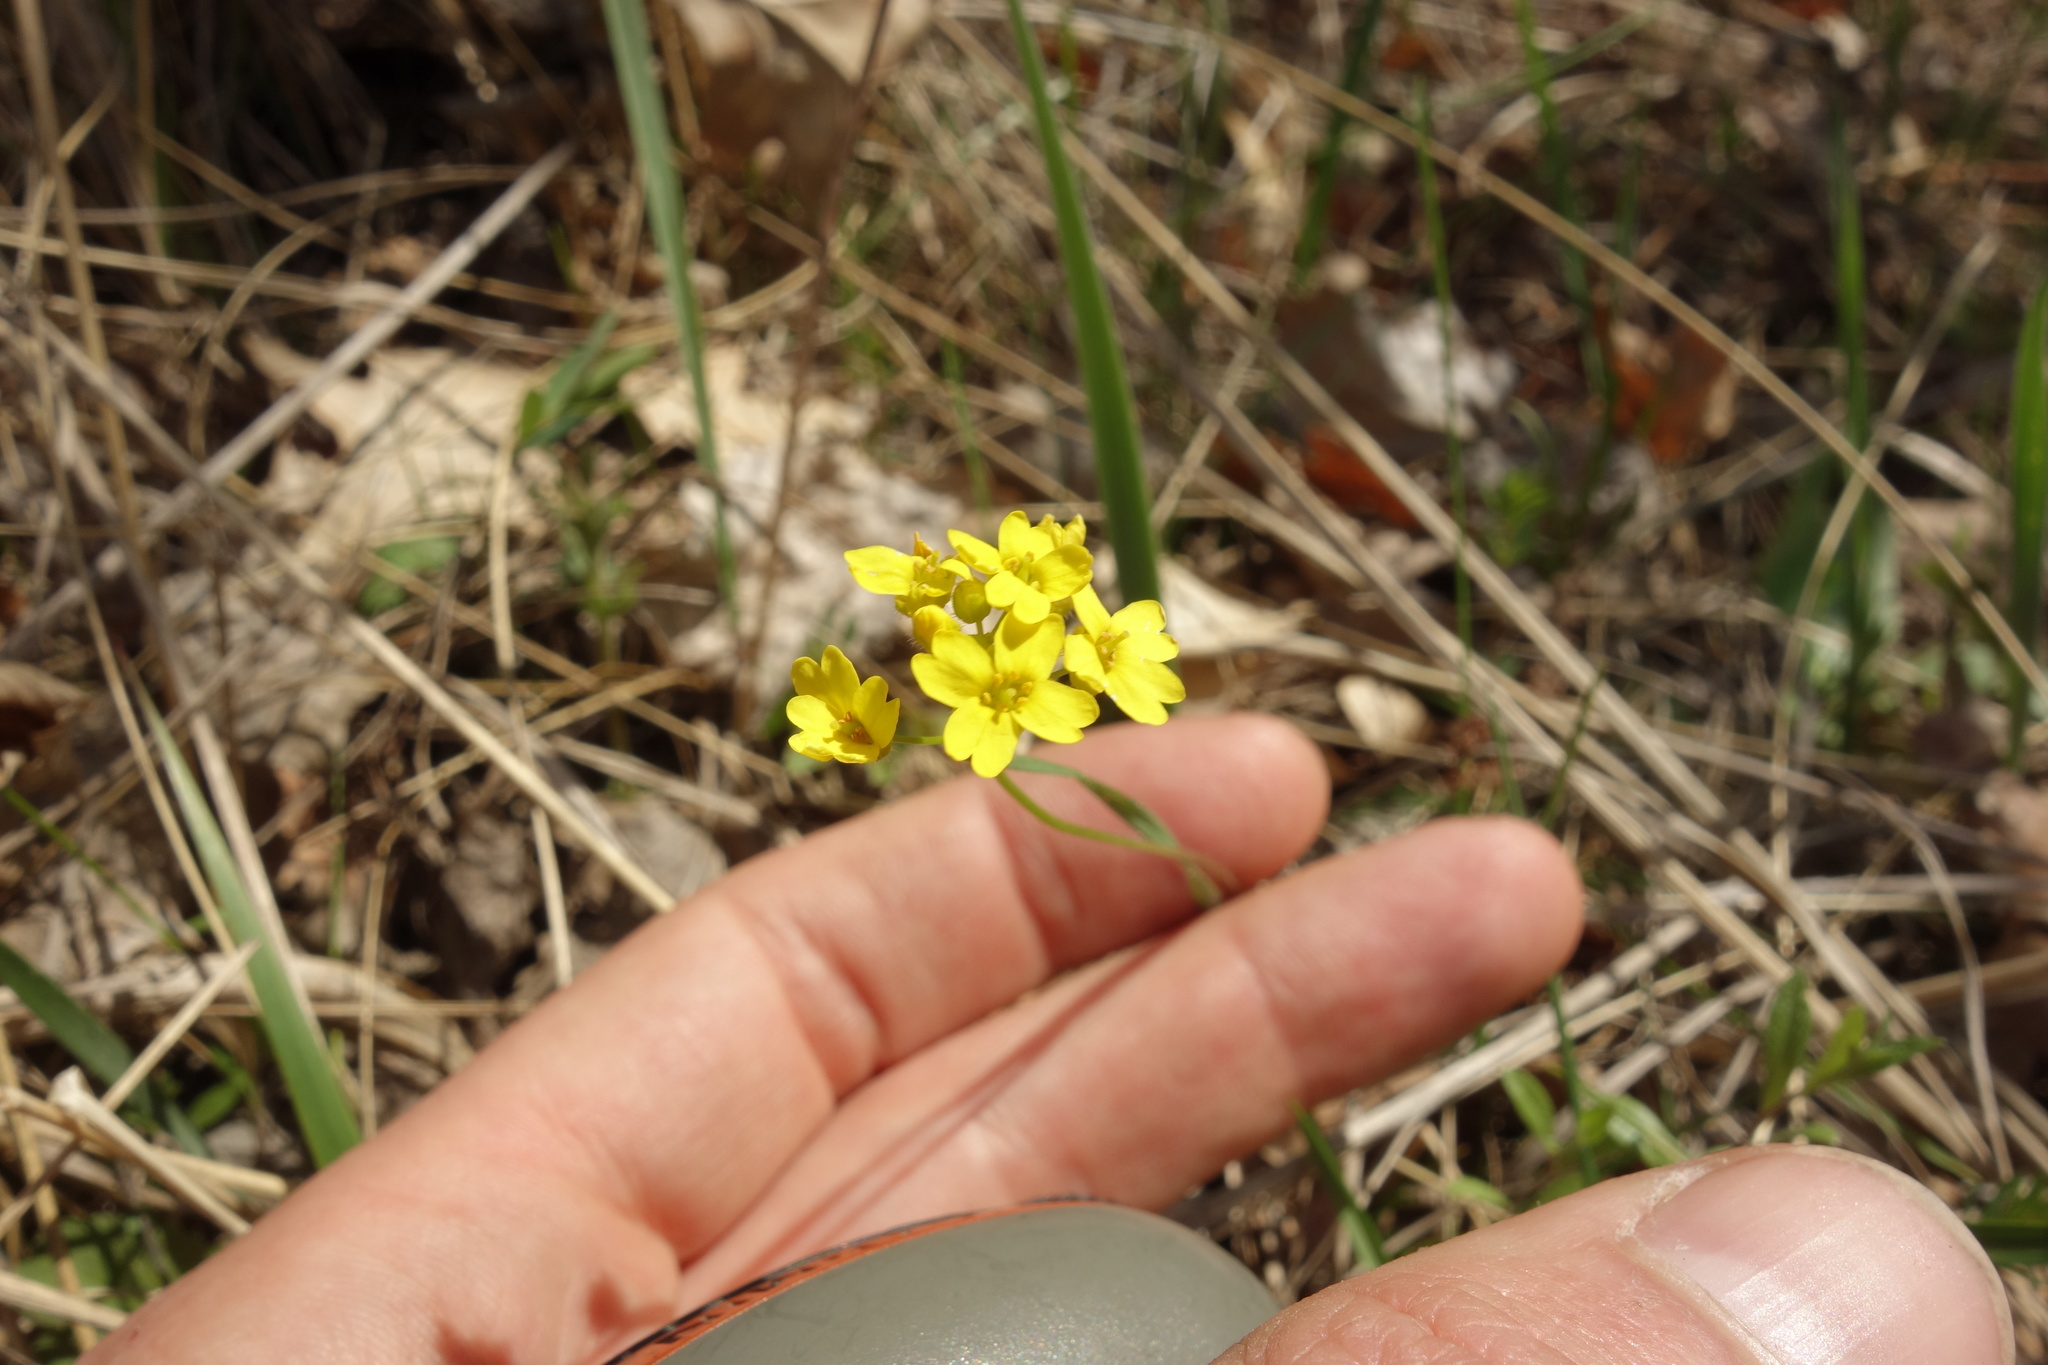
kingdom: Plantae
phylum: Tracheophyta
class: Magnoliopsida
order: Brassicales
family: Brassicaceae
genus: Draba
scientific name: Draba sibirica
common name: Siberian draba
